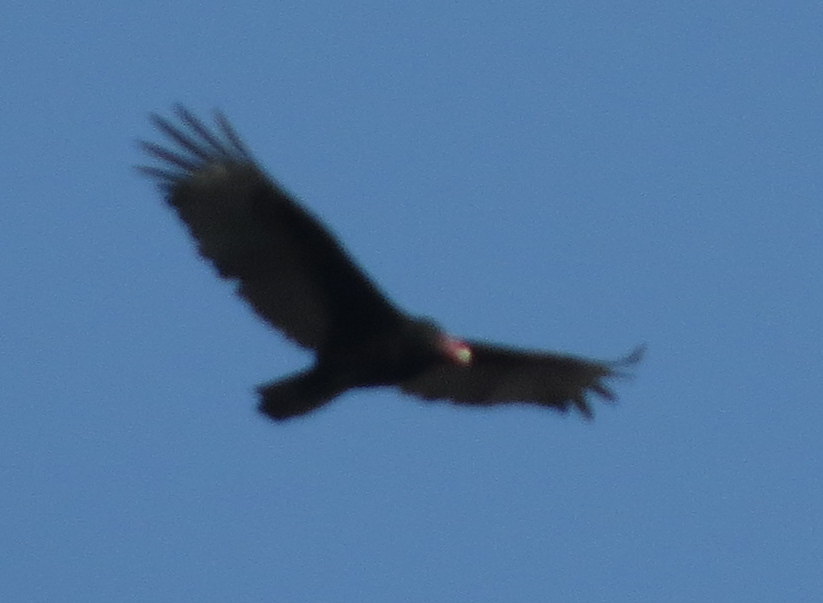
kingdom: Animalia
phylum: Chordata
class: Aves
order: Accipitriformes
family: Cathartidae
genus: Cathartes
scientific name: Cathartes aura
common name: Turkey vulture
